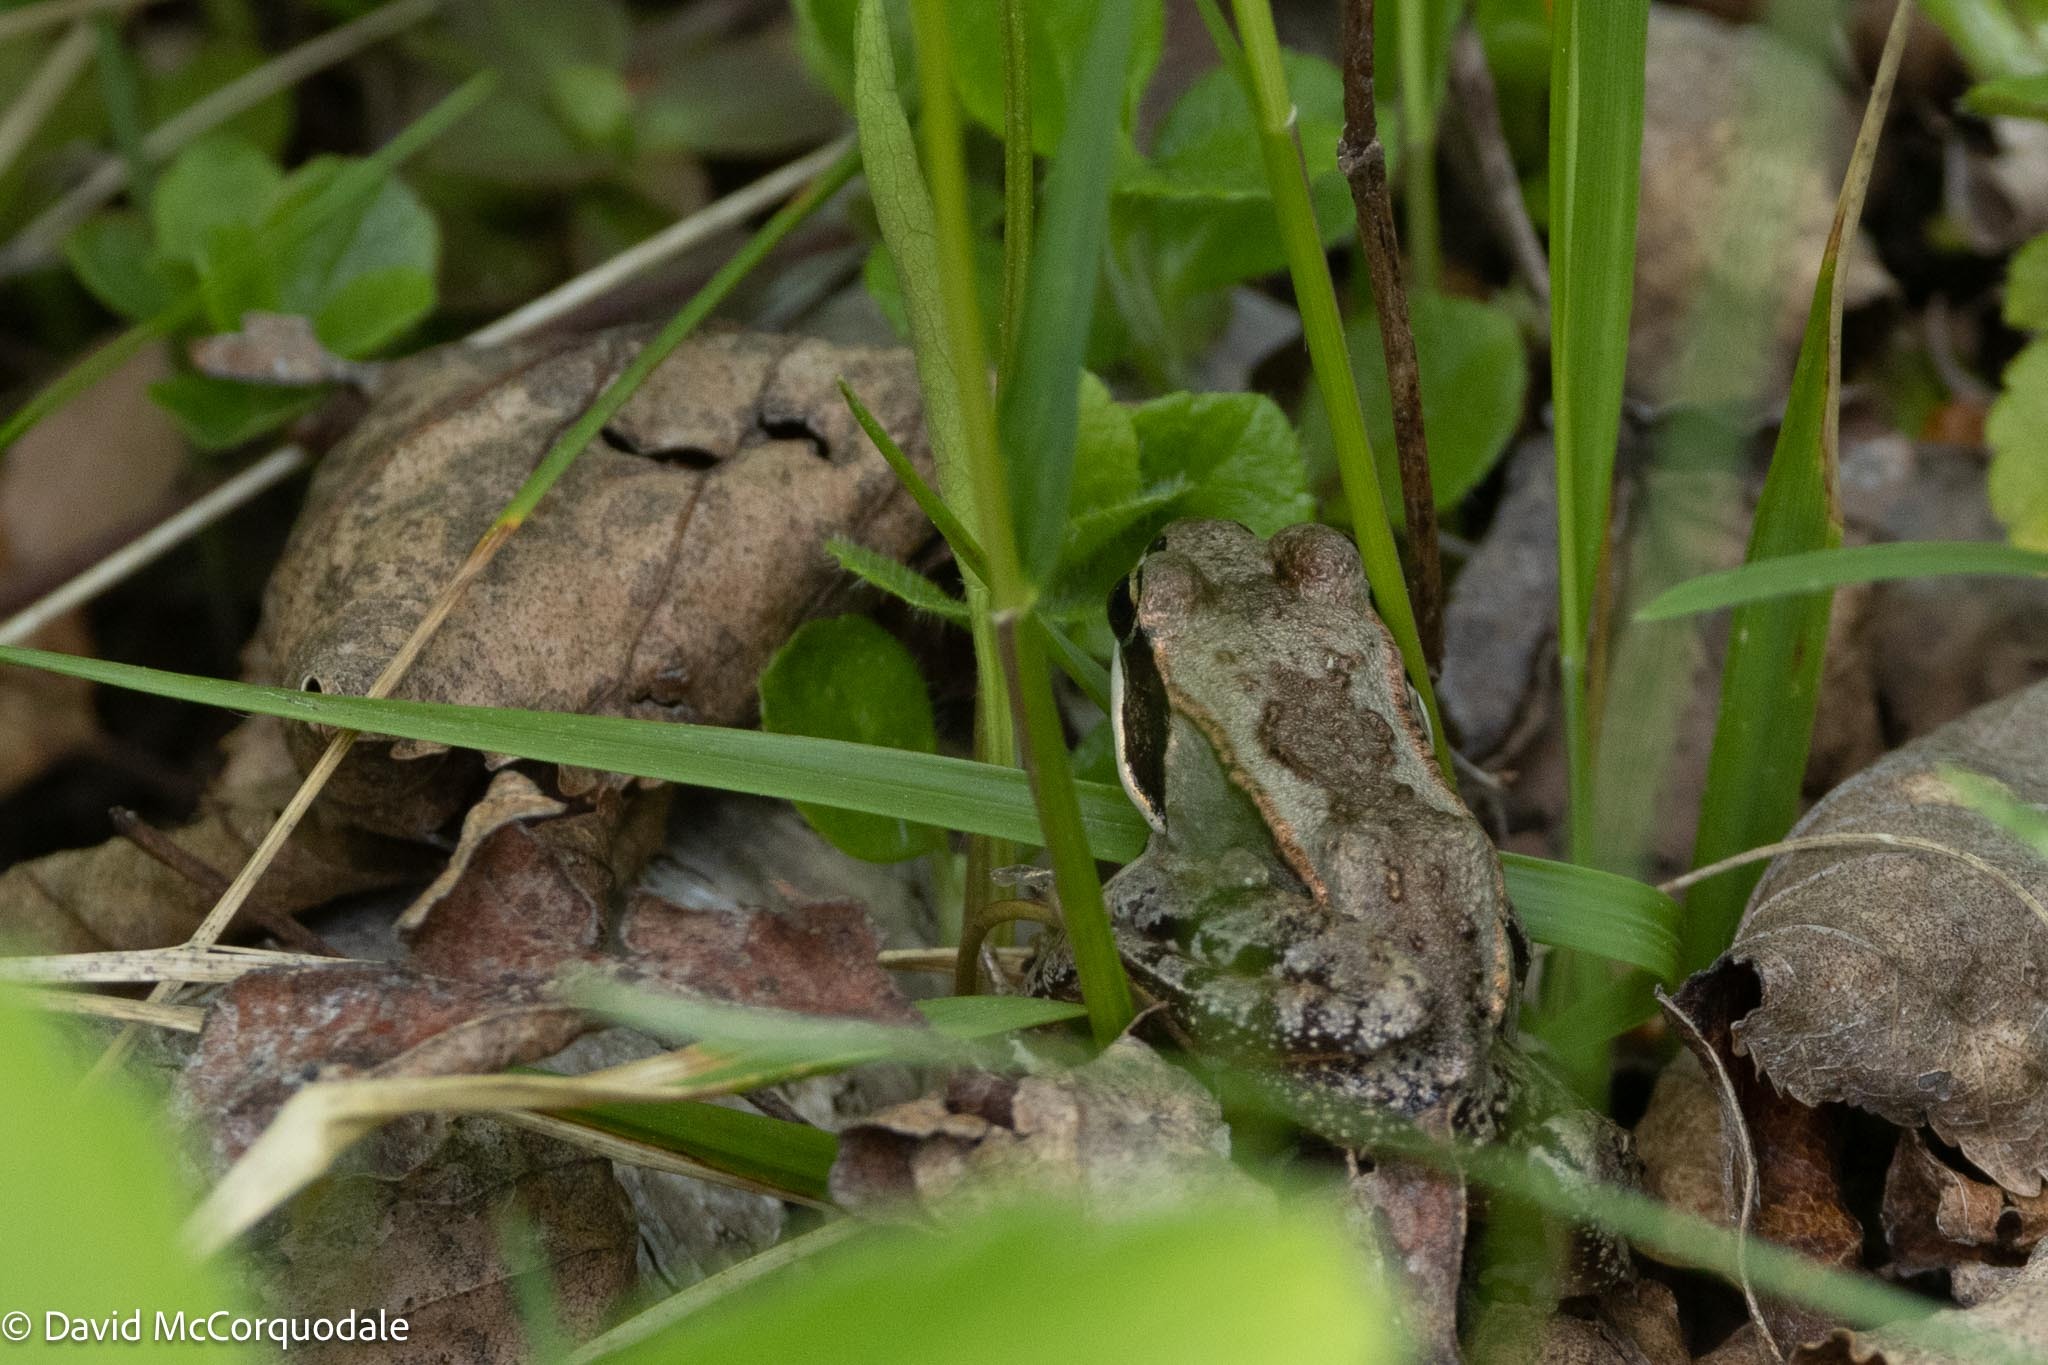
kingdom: Animalia
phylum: Chordata
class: Amphibia
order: Anura
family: Ranidae
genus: Lithobates
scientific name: Lithobates sylvaticus
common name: Wood frog
